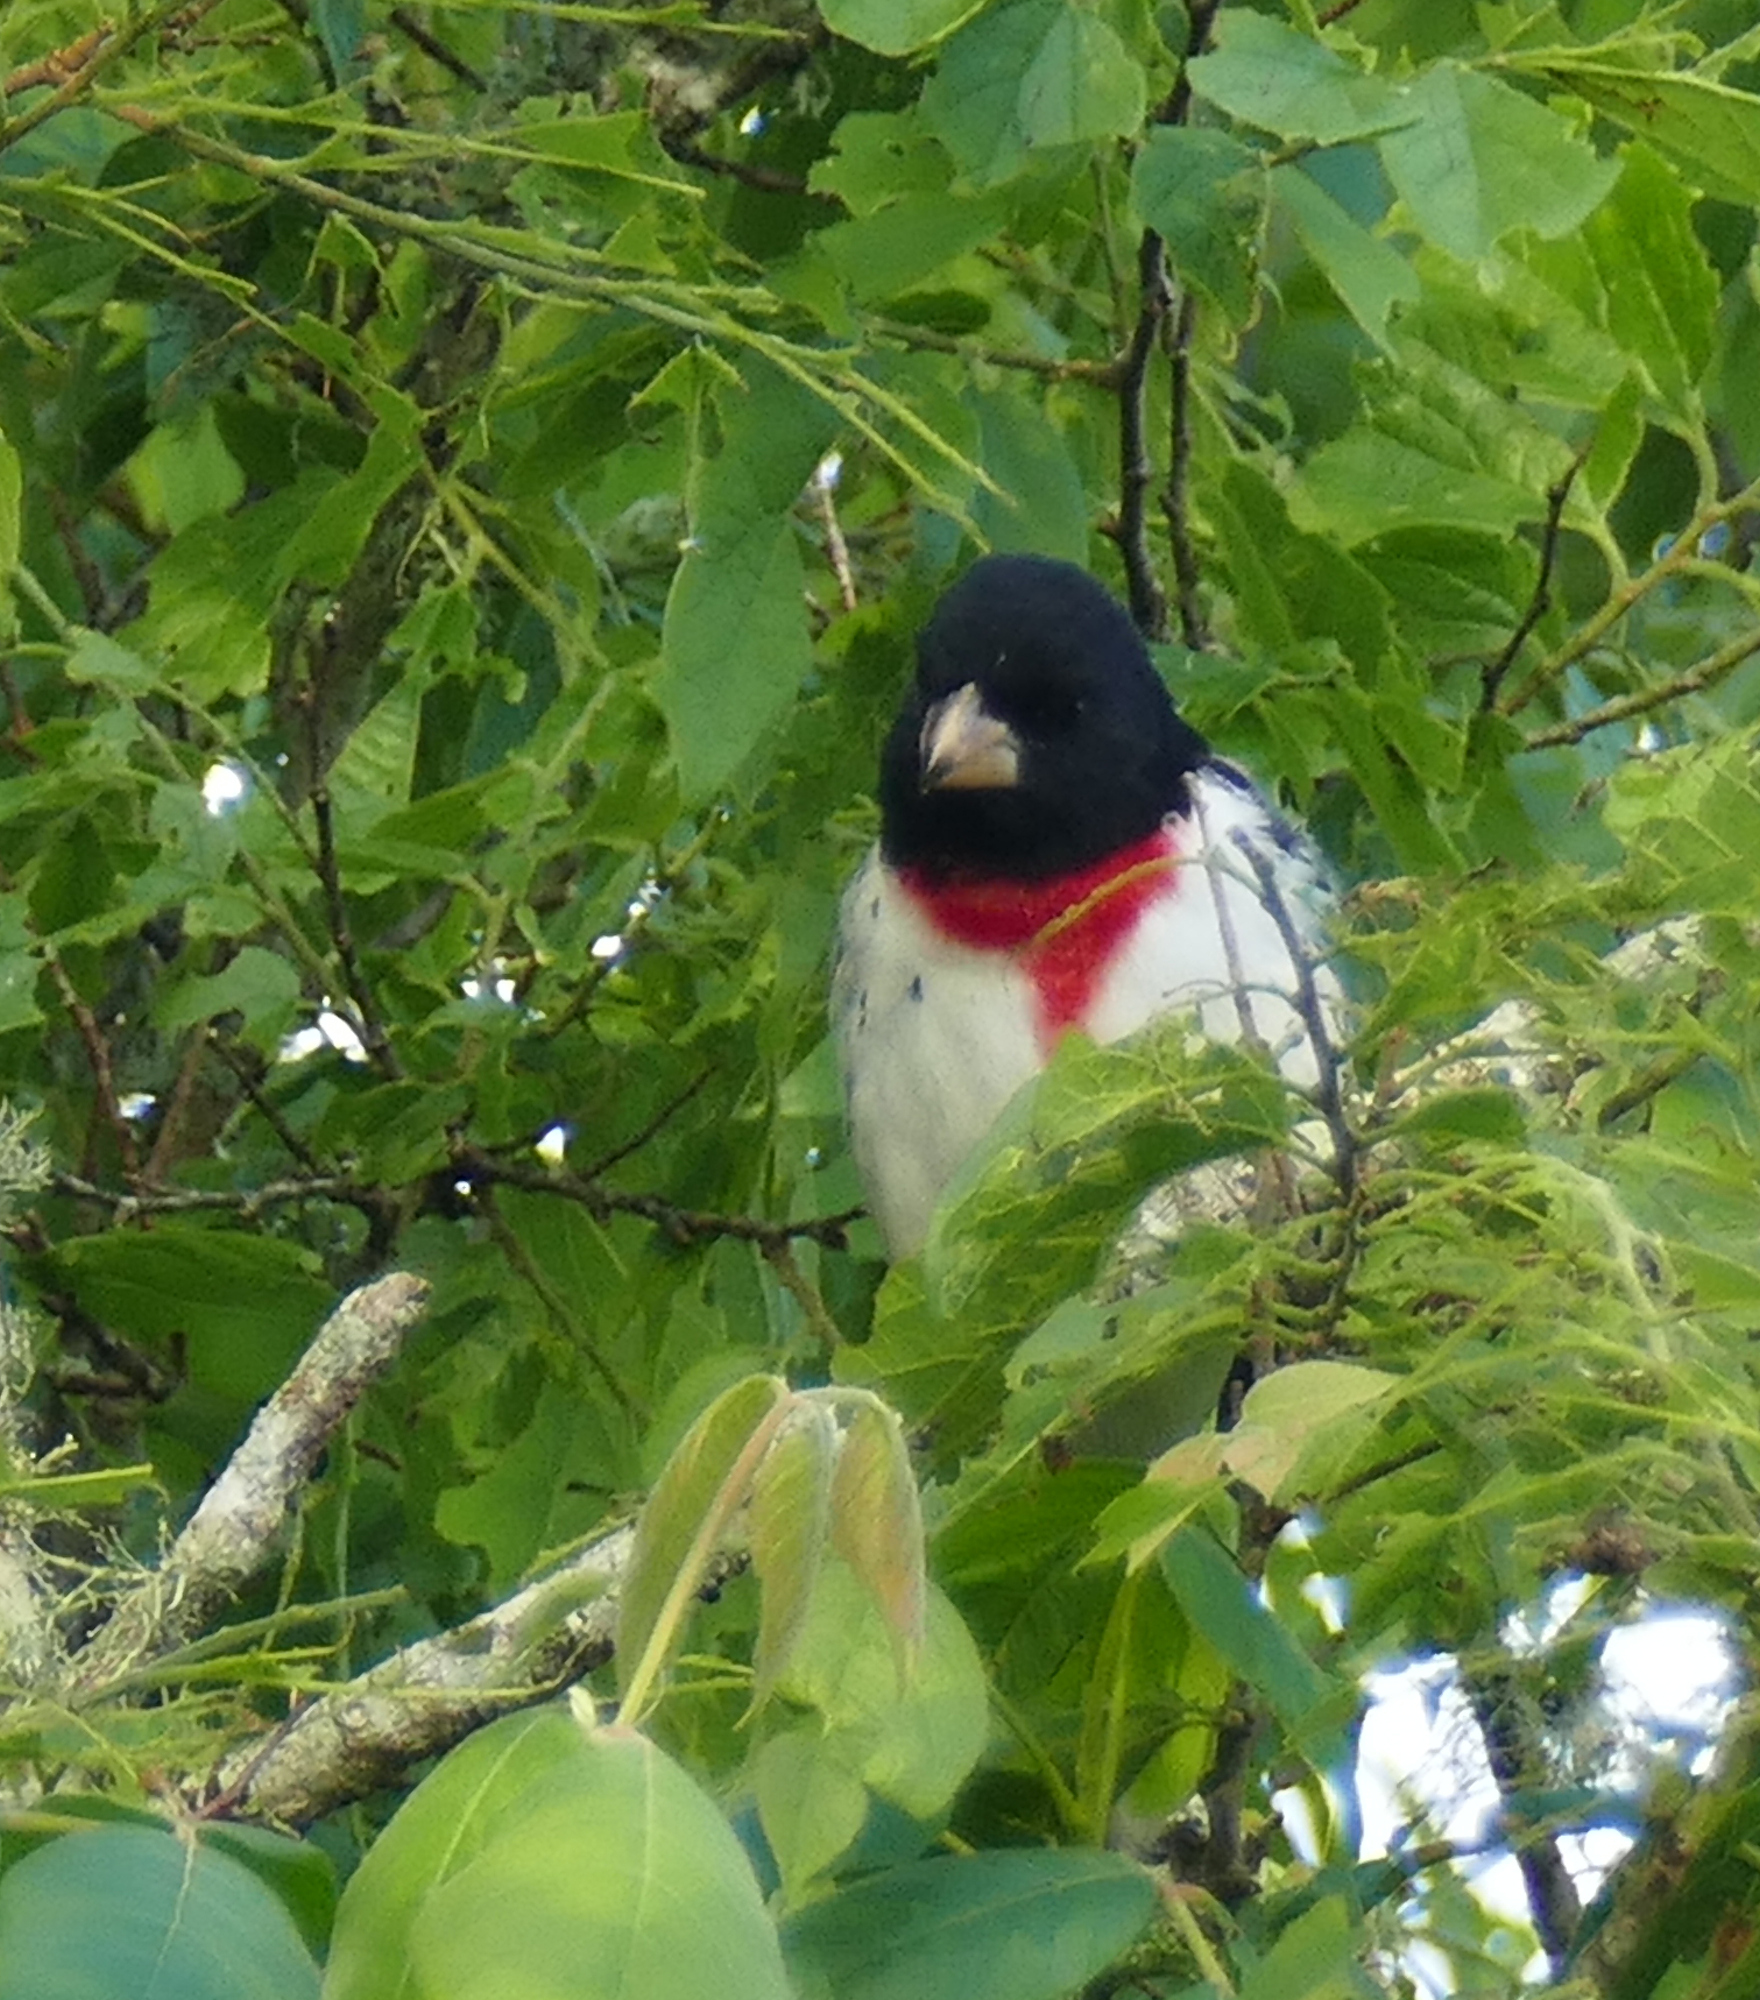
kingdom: Animalia
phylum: Chordata
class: Aves
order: Passeriformes
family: Cardinalidae
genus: Pheucticus
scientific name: Pheucticus ludovicianus
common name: Rose-breasted grosbeak
